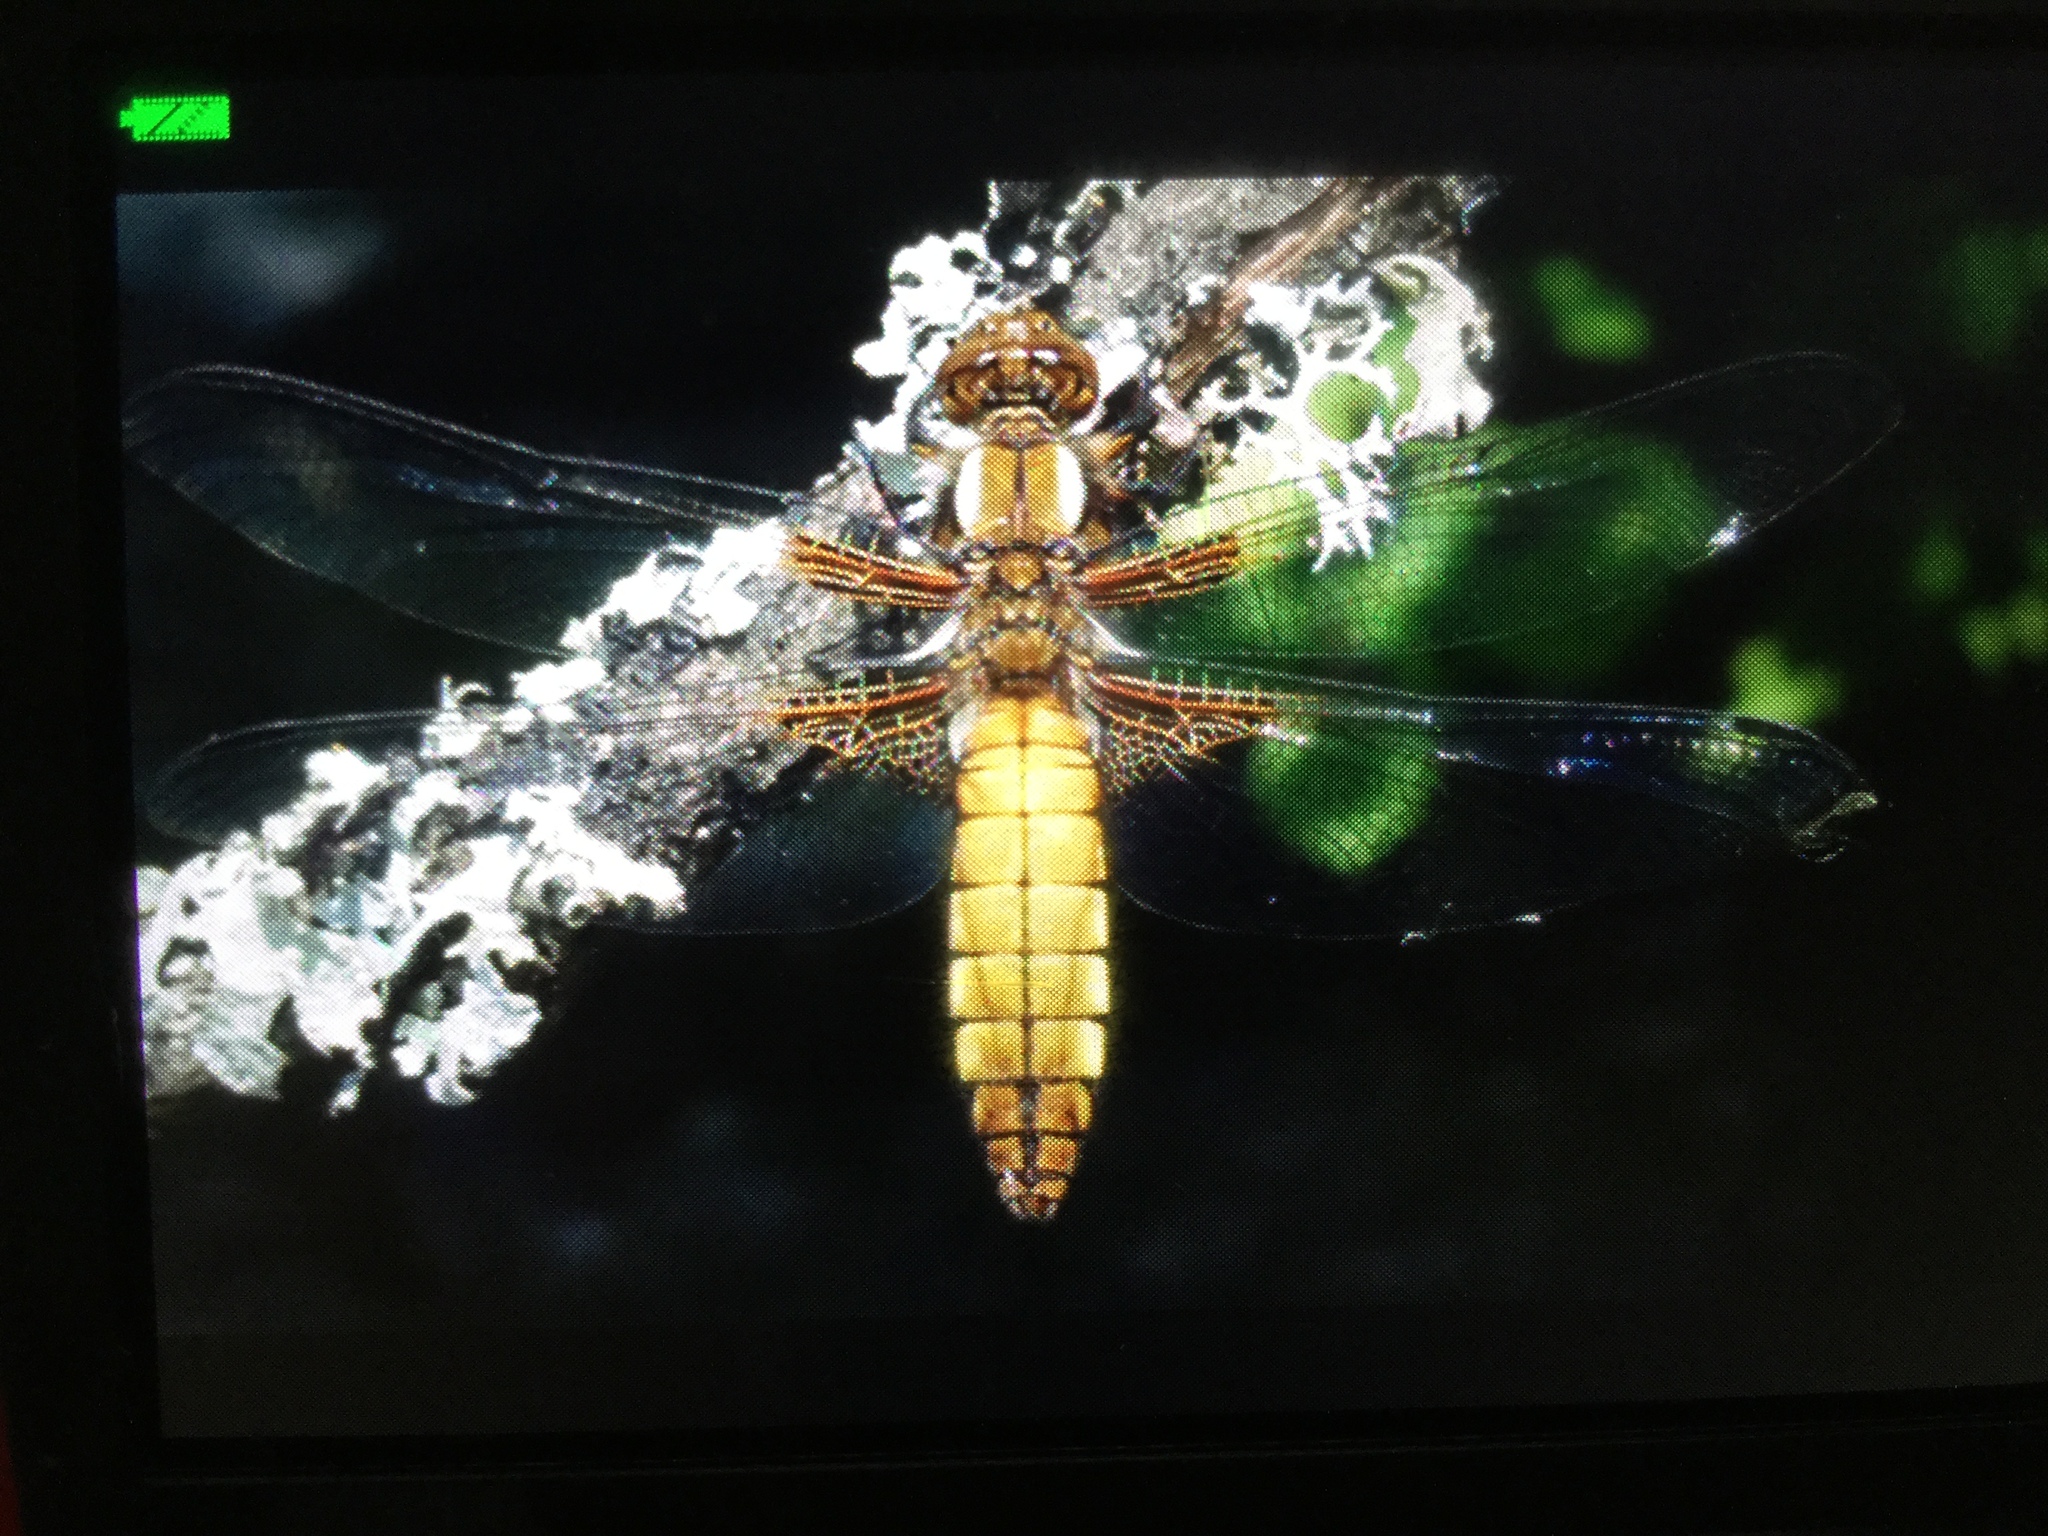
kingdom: Animalia
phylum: Arthropoda
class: Insecta
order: Odonata
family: Libellulidae
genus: Libellula
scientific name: Libellula depressa
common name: Broad-bodied chaser
